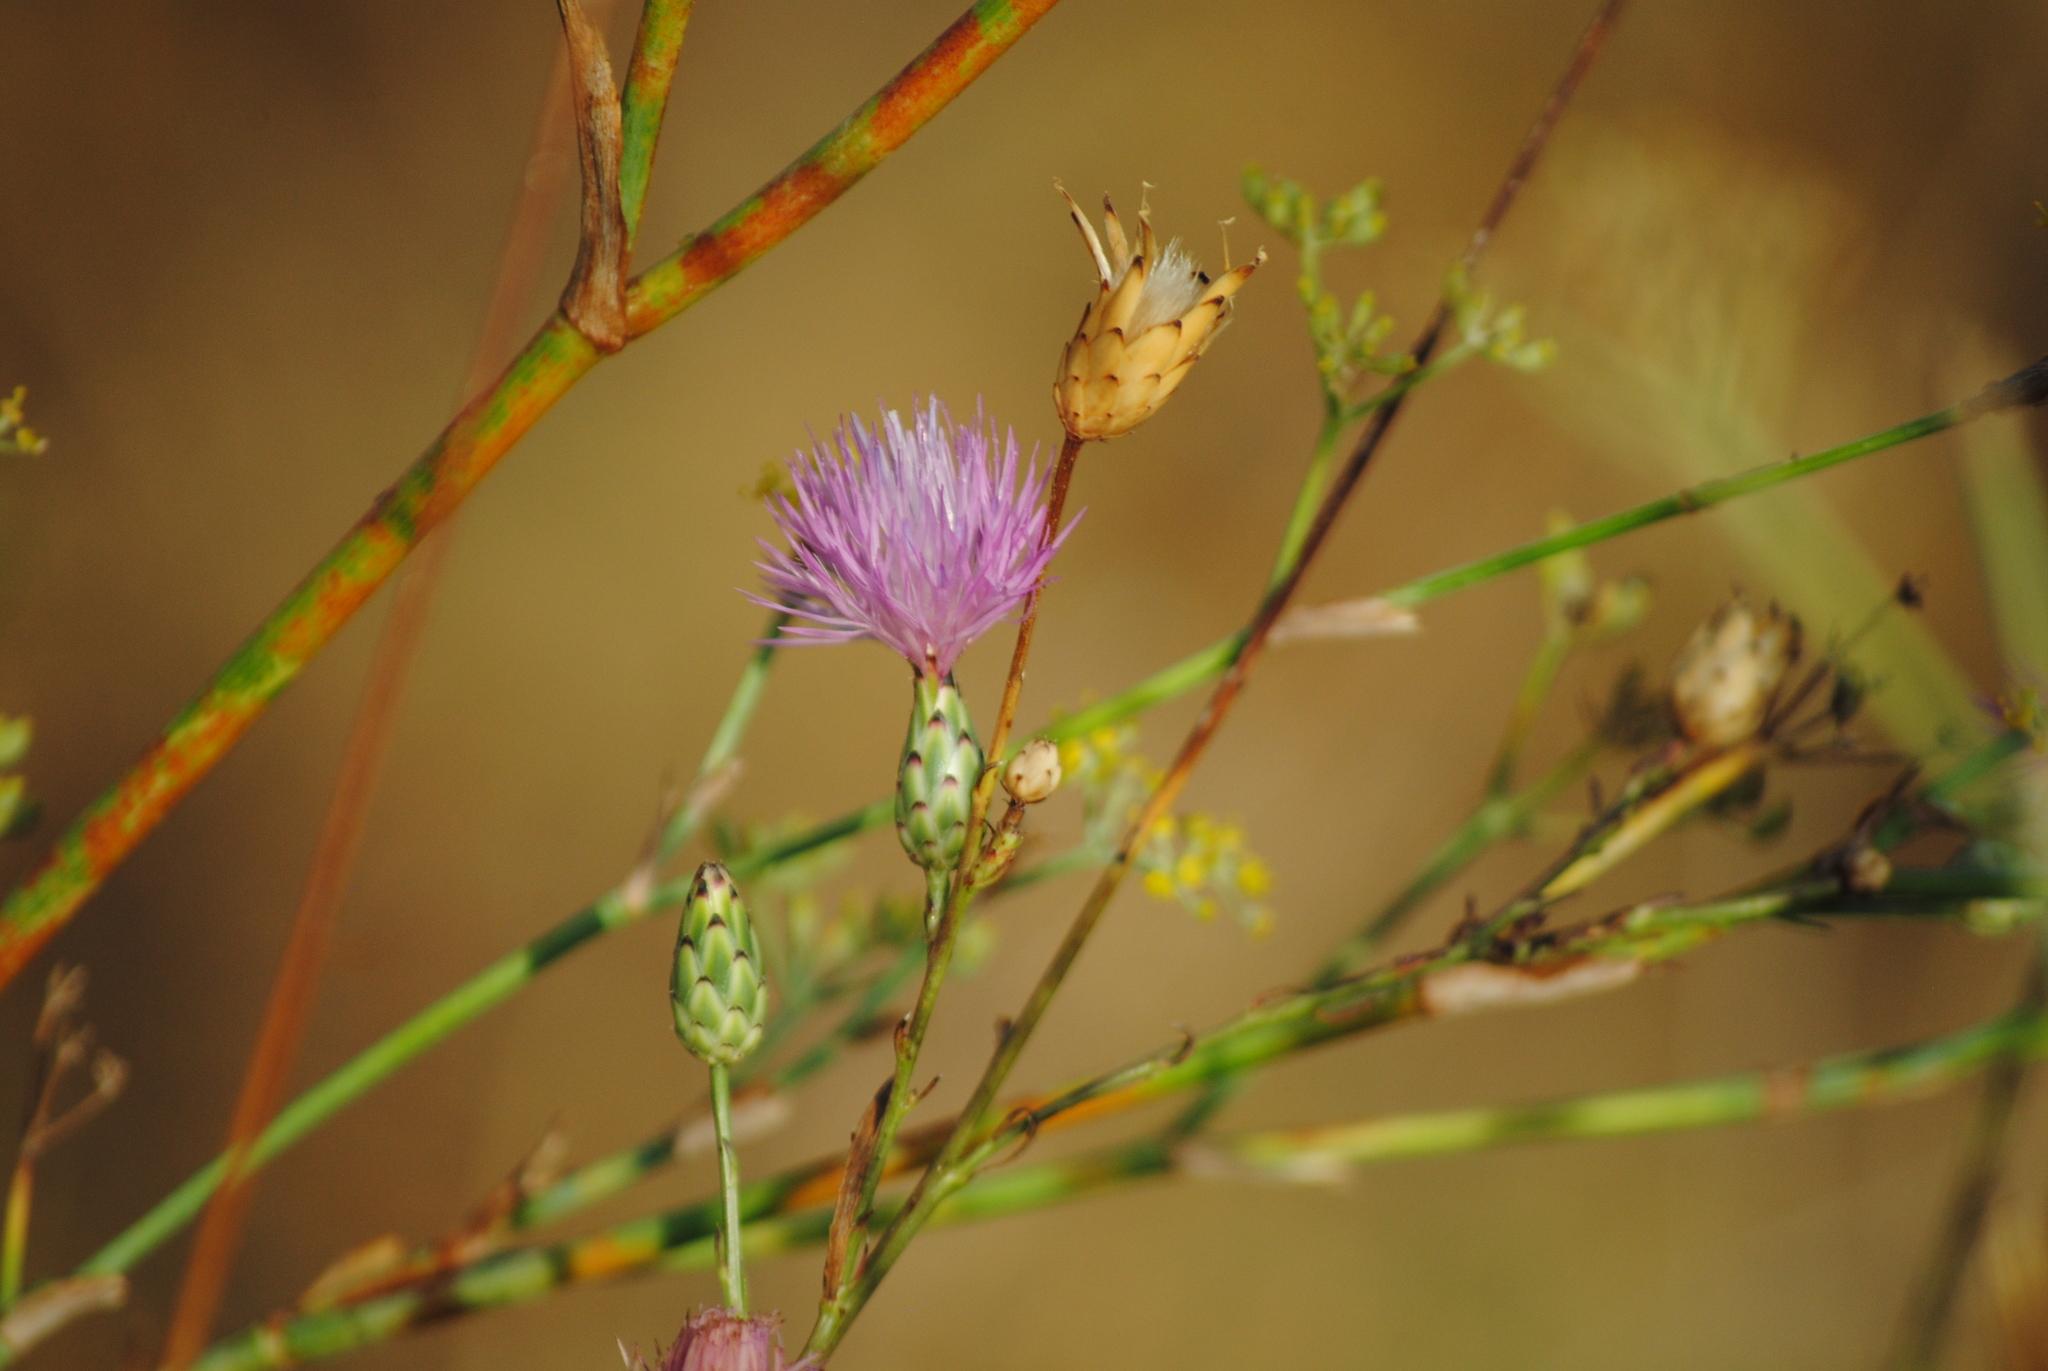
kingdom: Plantae
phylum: Tracheophyta
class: Magnoliopsida
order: Asterales
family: Asteraceae
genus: Mantisalca
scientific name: Mantisalca salmantica
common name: Dagger flower
